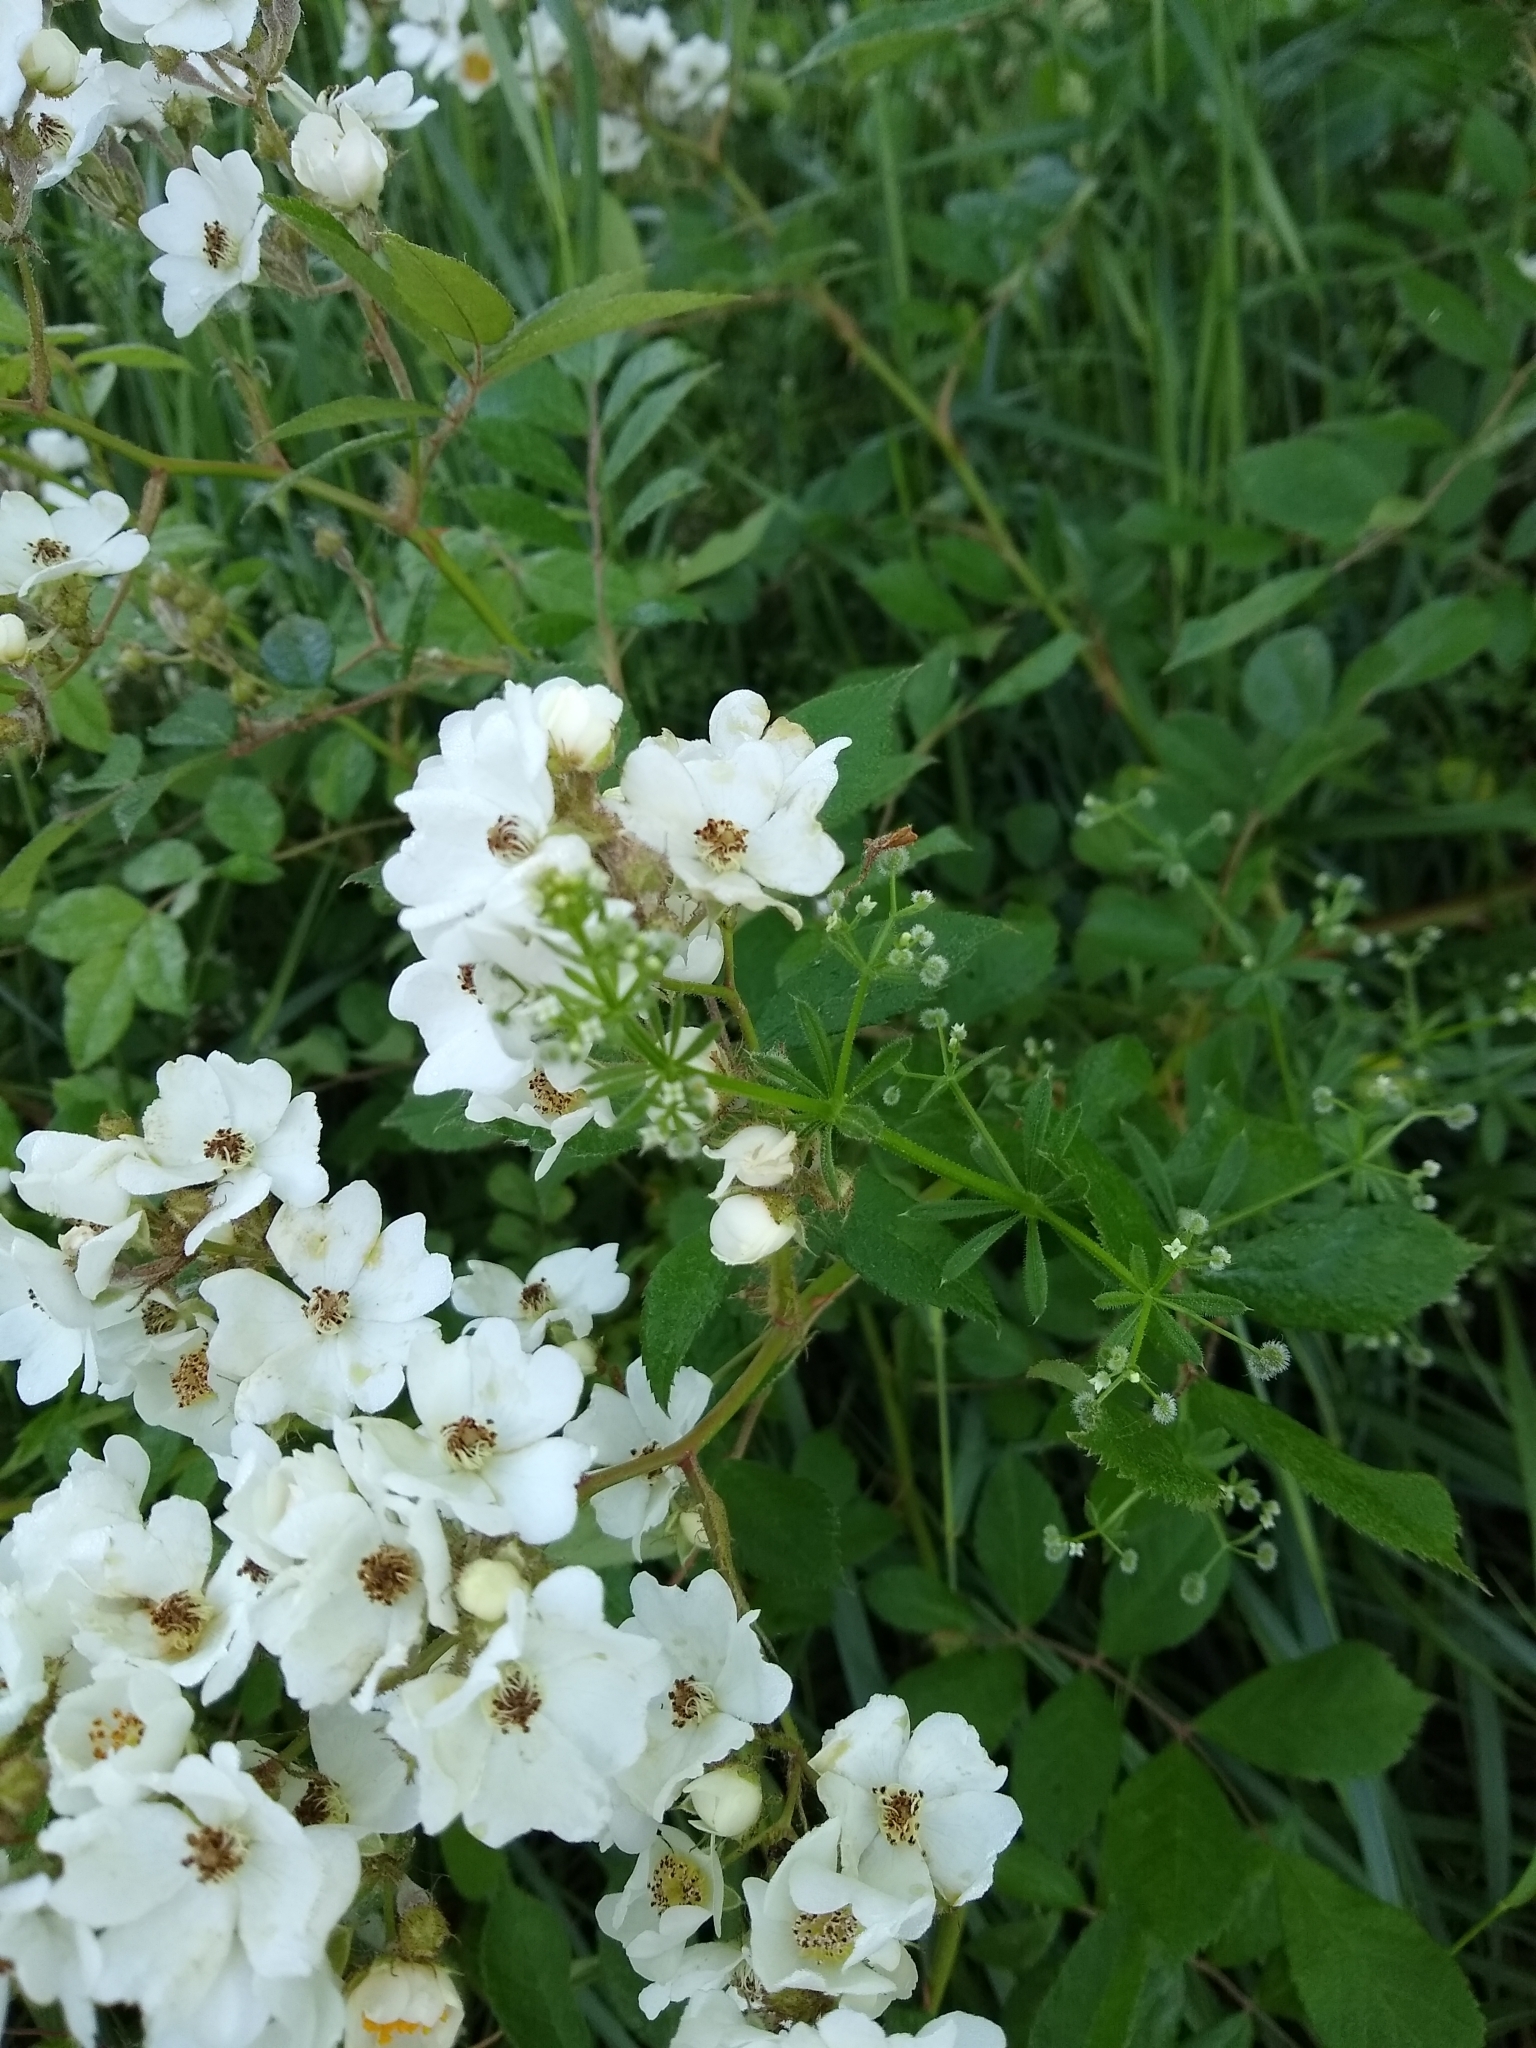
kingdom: Plantae
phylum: Tracheophyta
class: Magnoliopsida
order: Rosales
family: Rosaceae
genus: Rosa
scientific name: Rosa multiflora
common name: Multiflora rose
